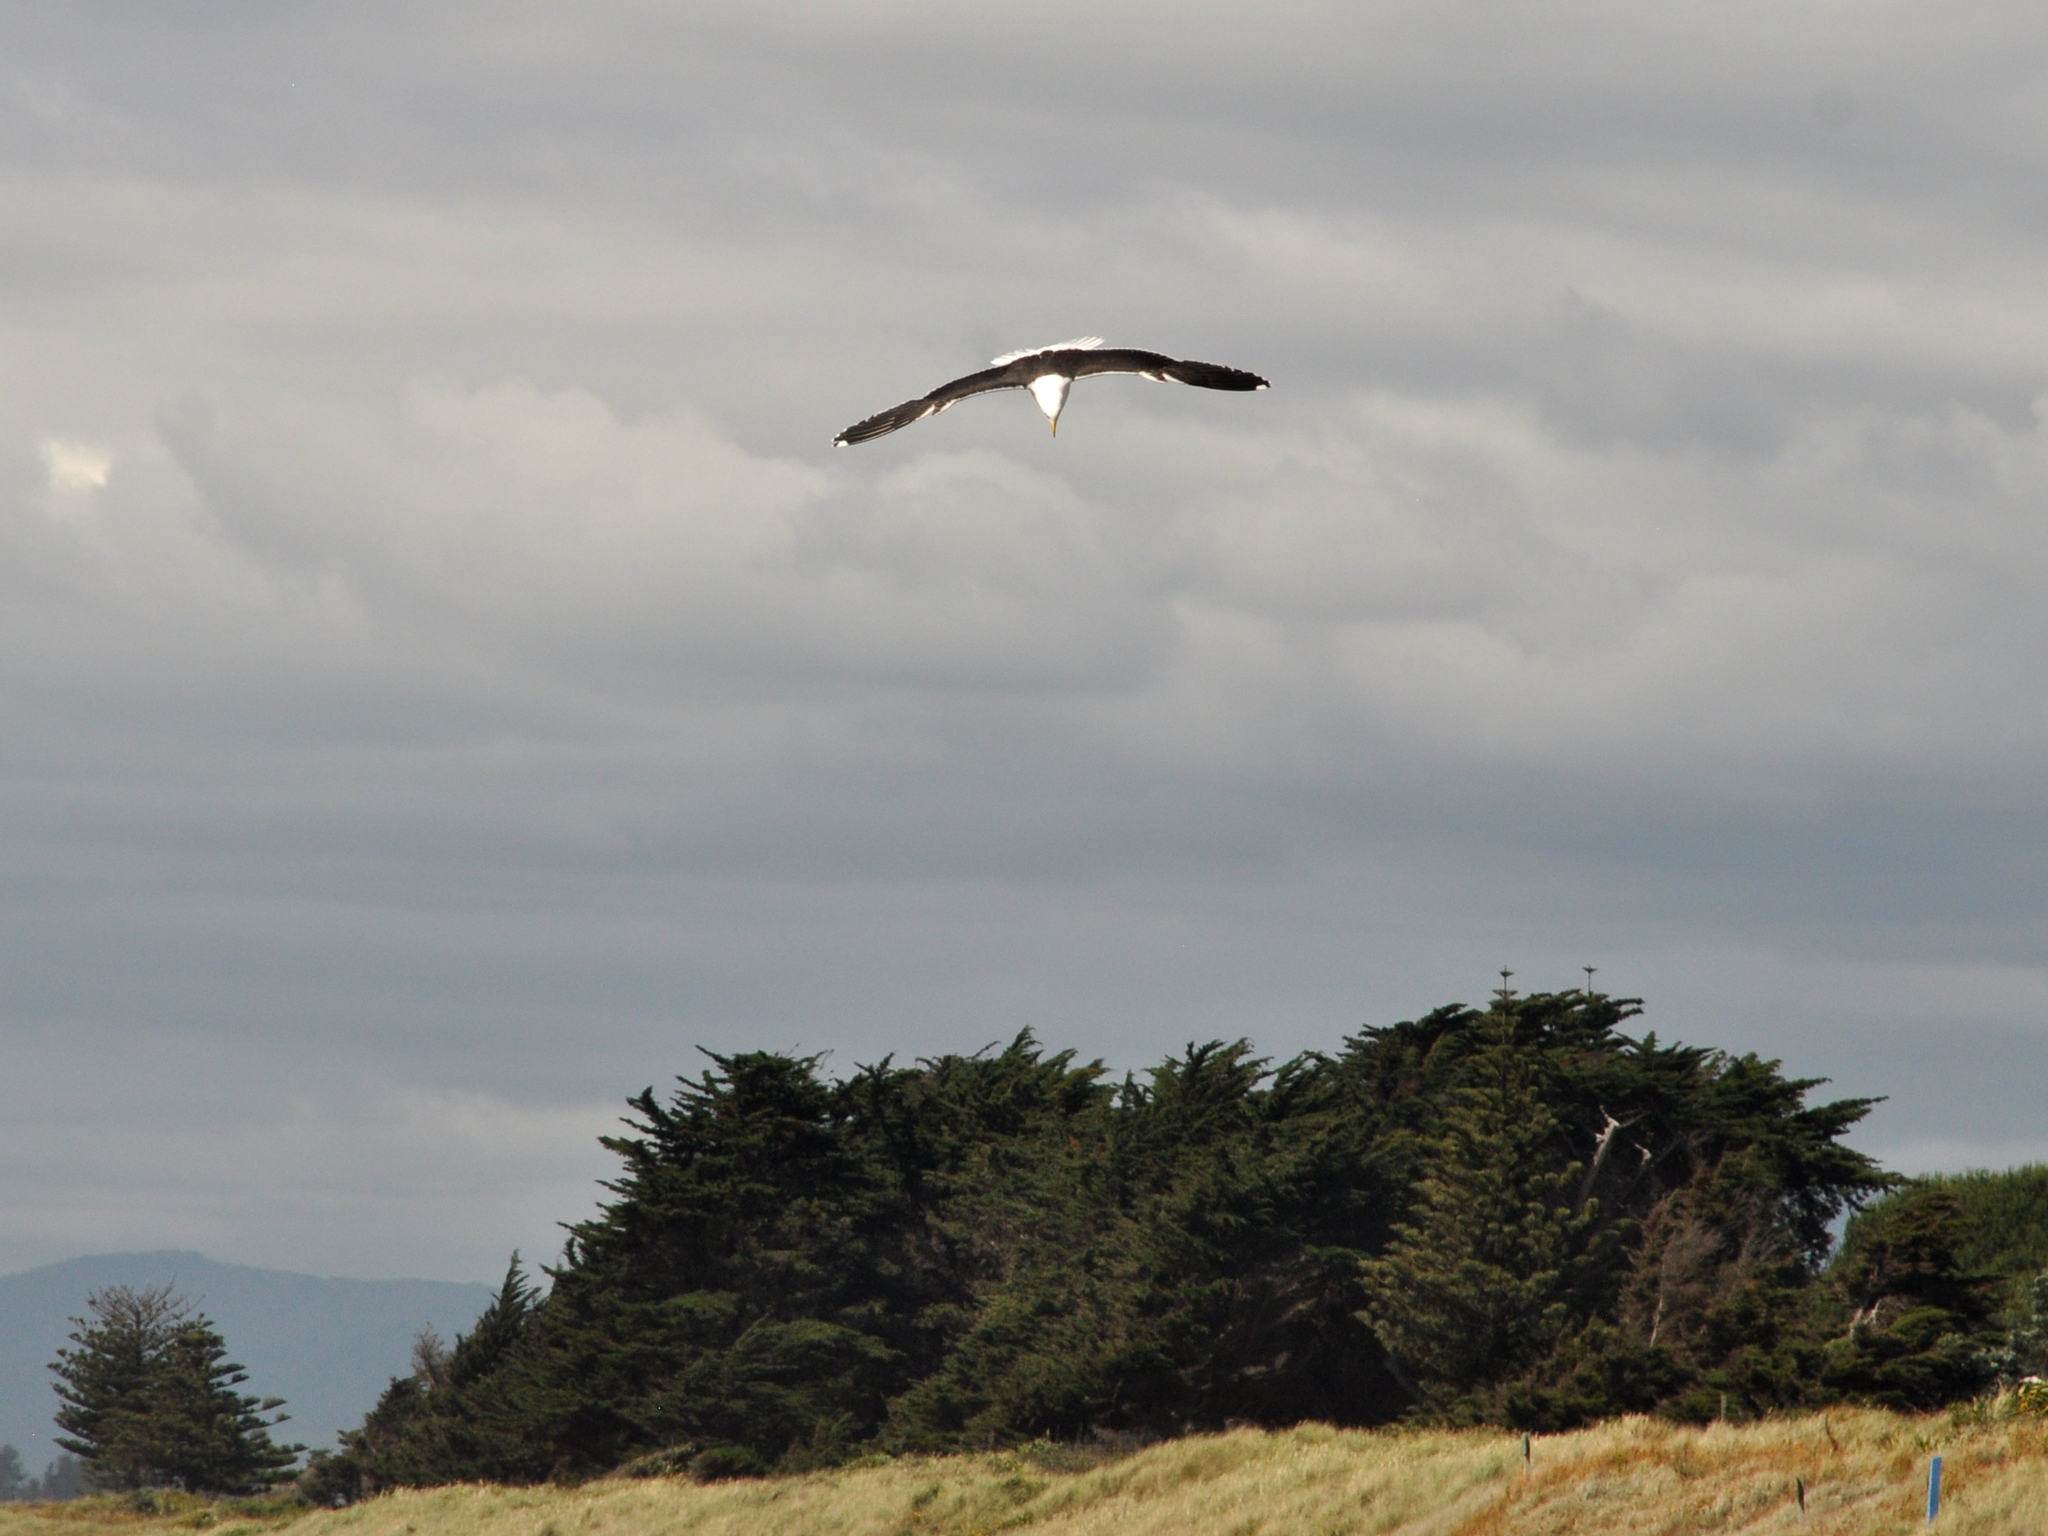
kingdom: Animalia
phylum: Chordata
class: Aves
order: Charadriiformes
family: Laridae
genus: Larus
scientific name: Larus dominicanus
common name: Kelp gull
